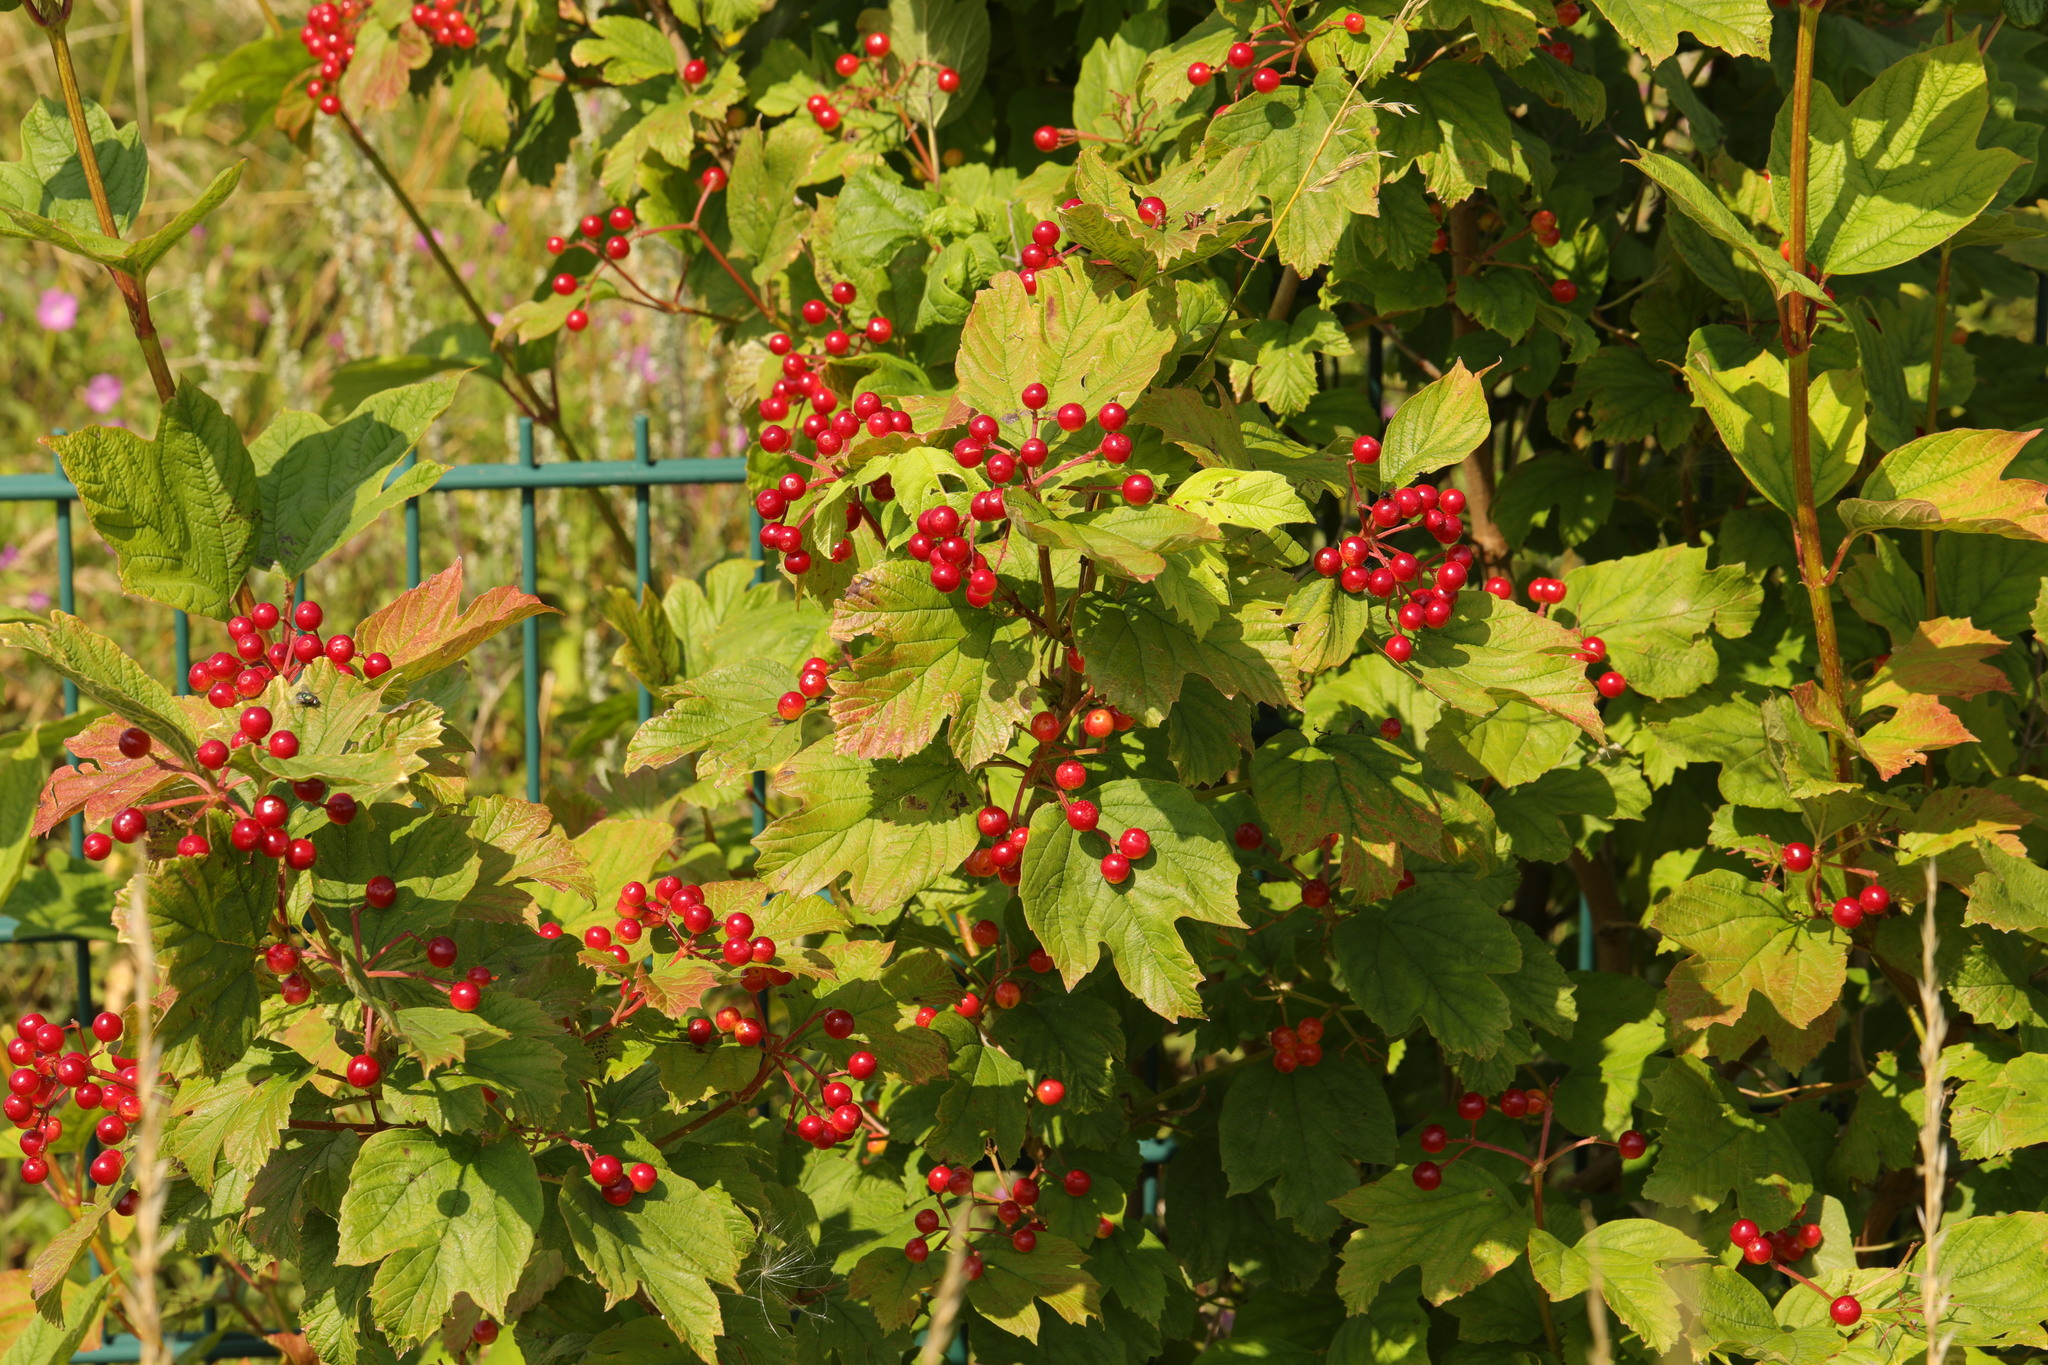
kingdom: Plantae
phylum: Tracheophyta
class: Magnoliopsida
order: Dipsacales
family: Viburnaceae
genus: Viburnum
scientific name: Viburnum opulus
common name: Guelder-rose
